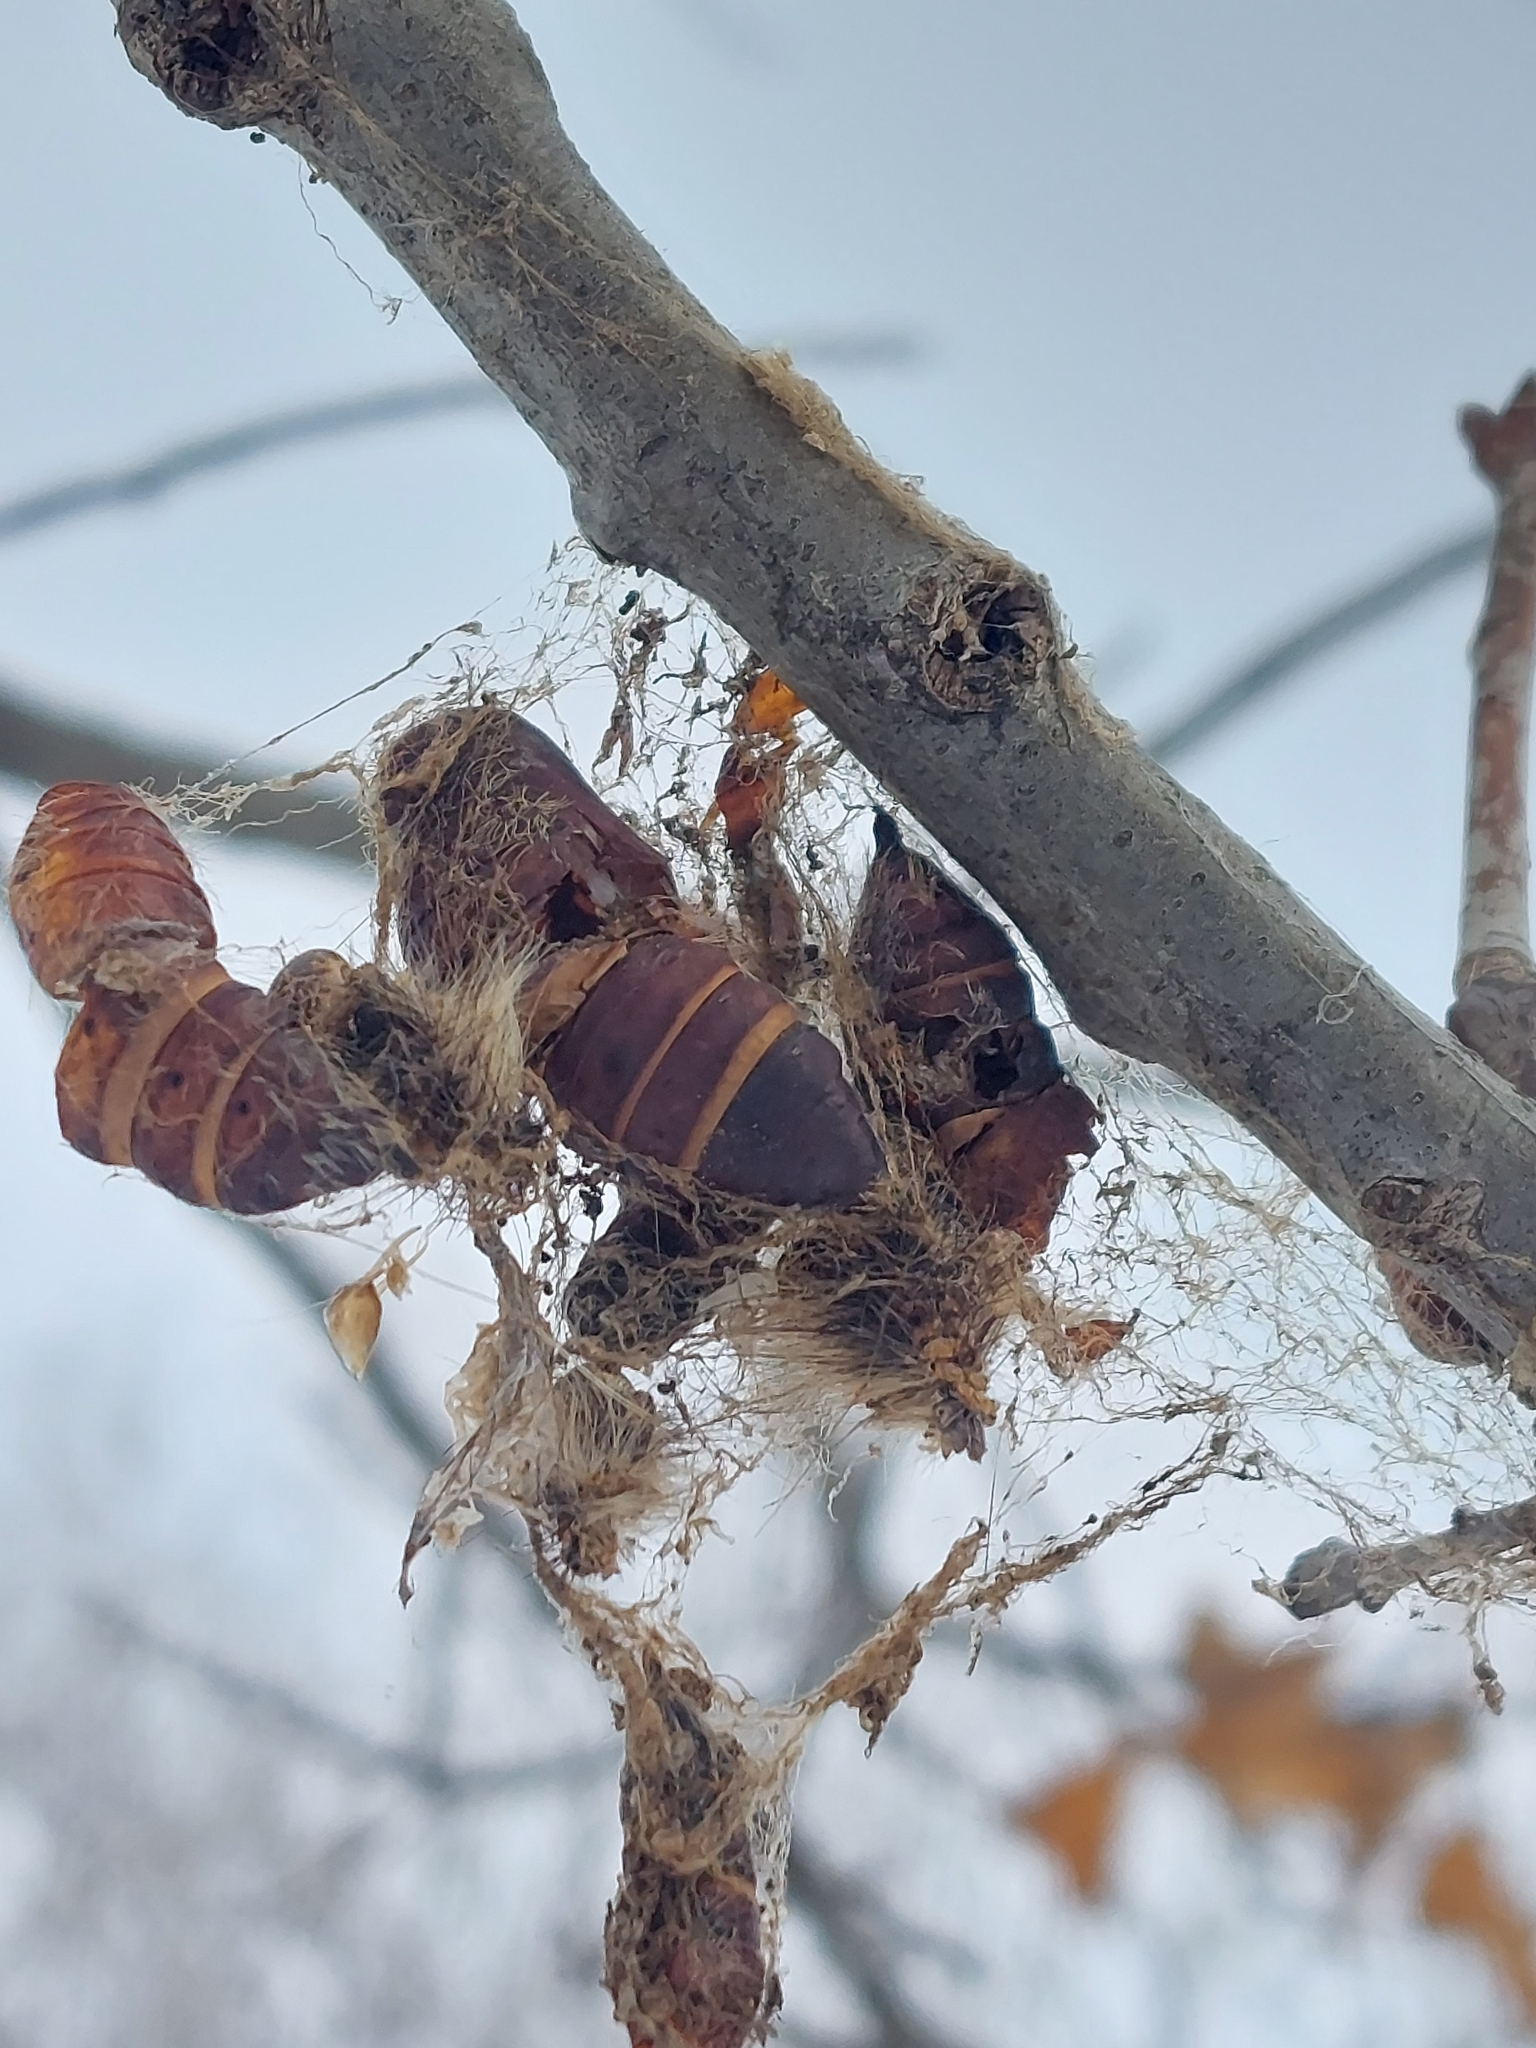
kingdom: Animalia
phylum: Arthropoda
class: Insecta
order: Lepidoptera
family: Erebidae
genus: Lymantria
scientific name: Lymantria dispar
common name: Gypsy moth
